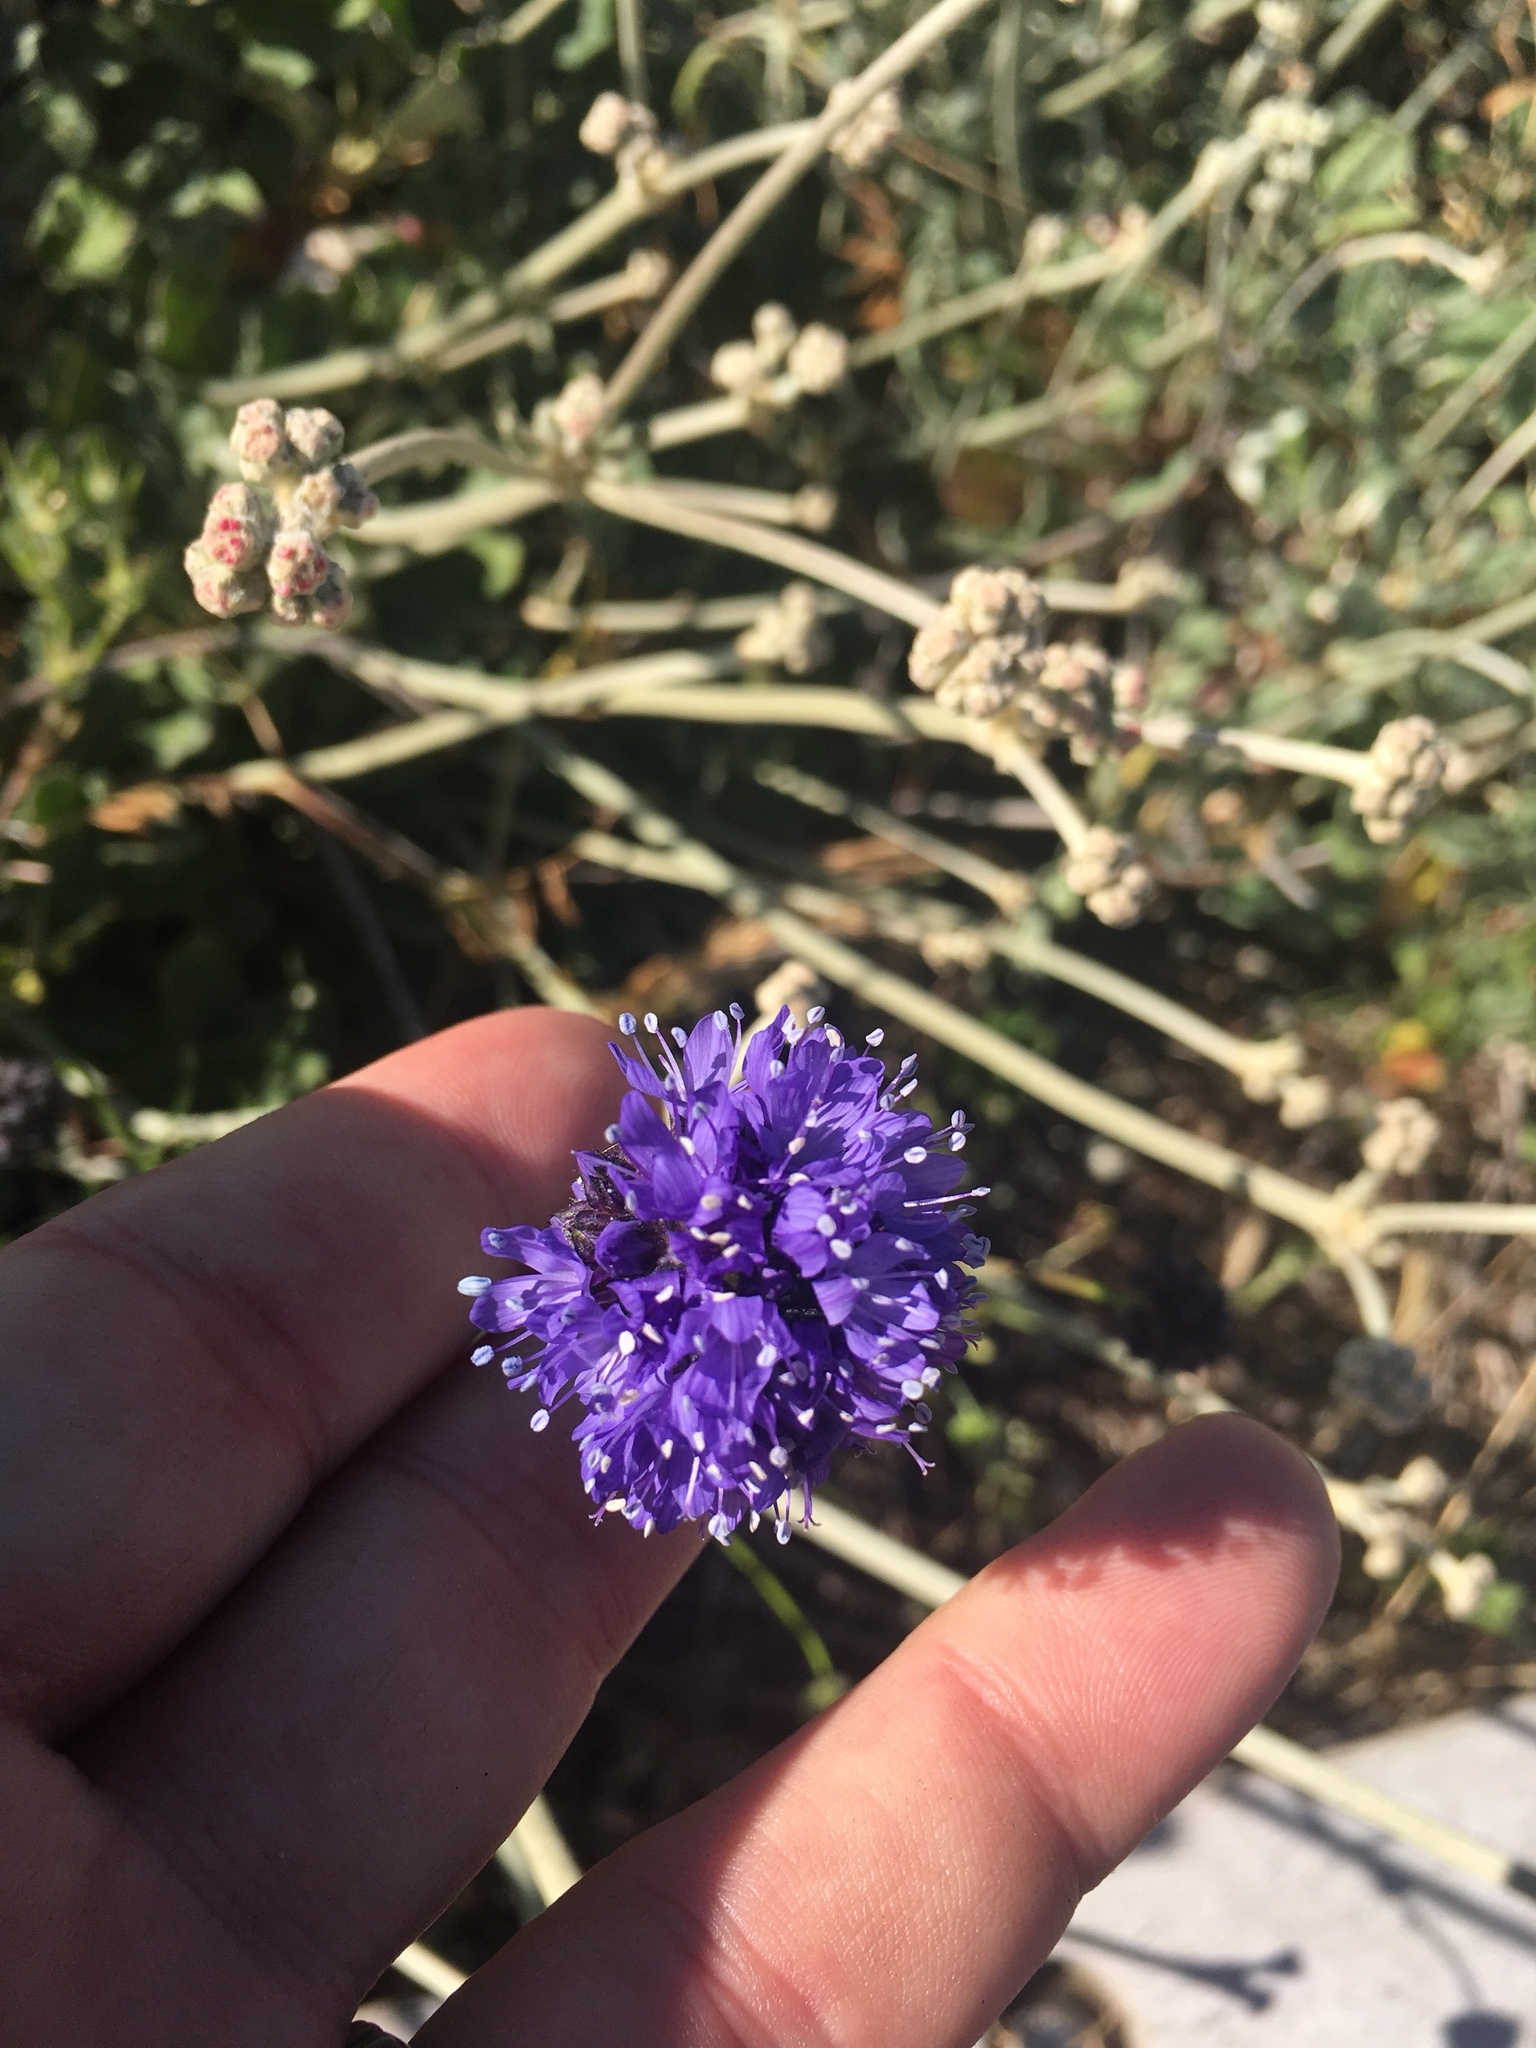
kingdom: Plantae
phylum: Tracheophyta
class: Magnoliopsida
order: Ericales
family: Polemoniaceae
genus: Gilia
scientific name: Gilia capitata
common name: Bluehead gilia
